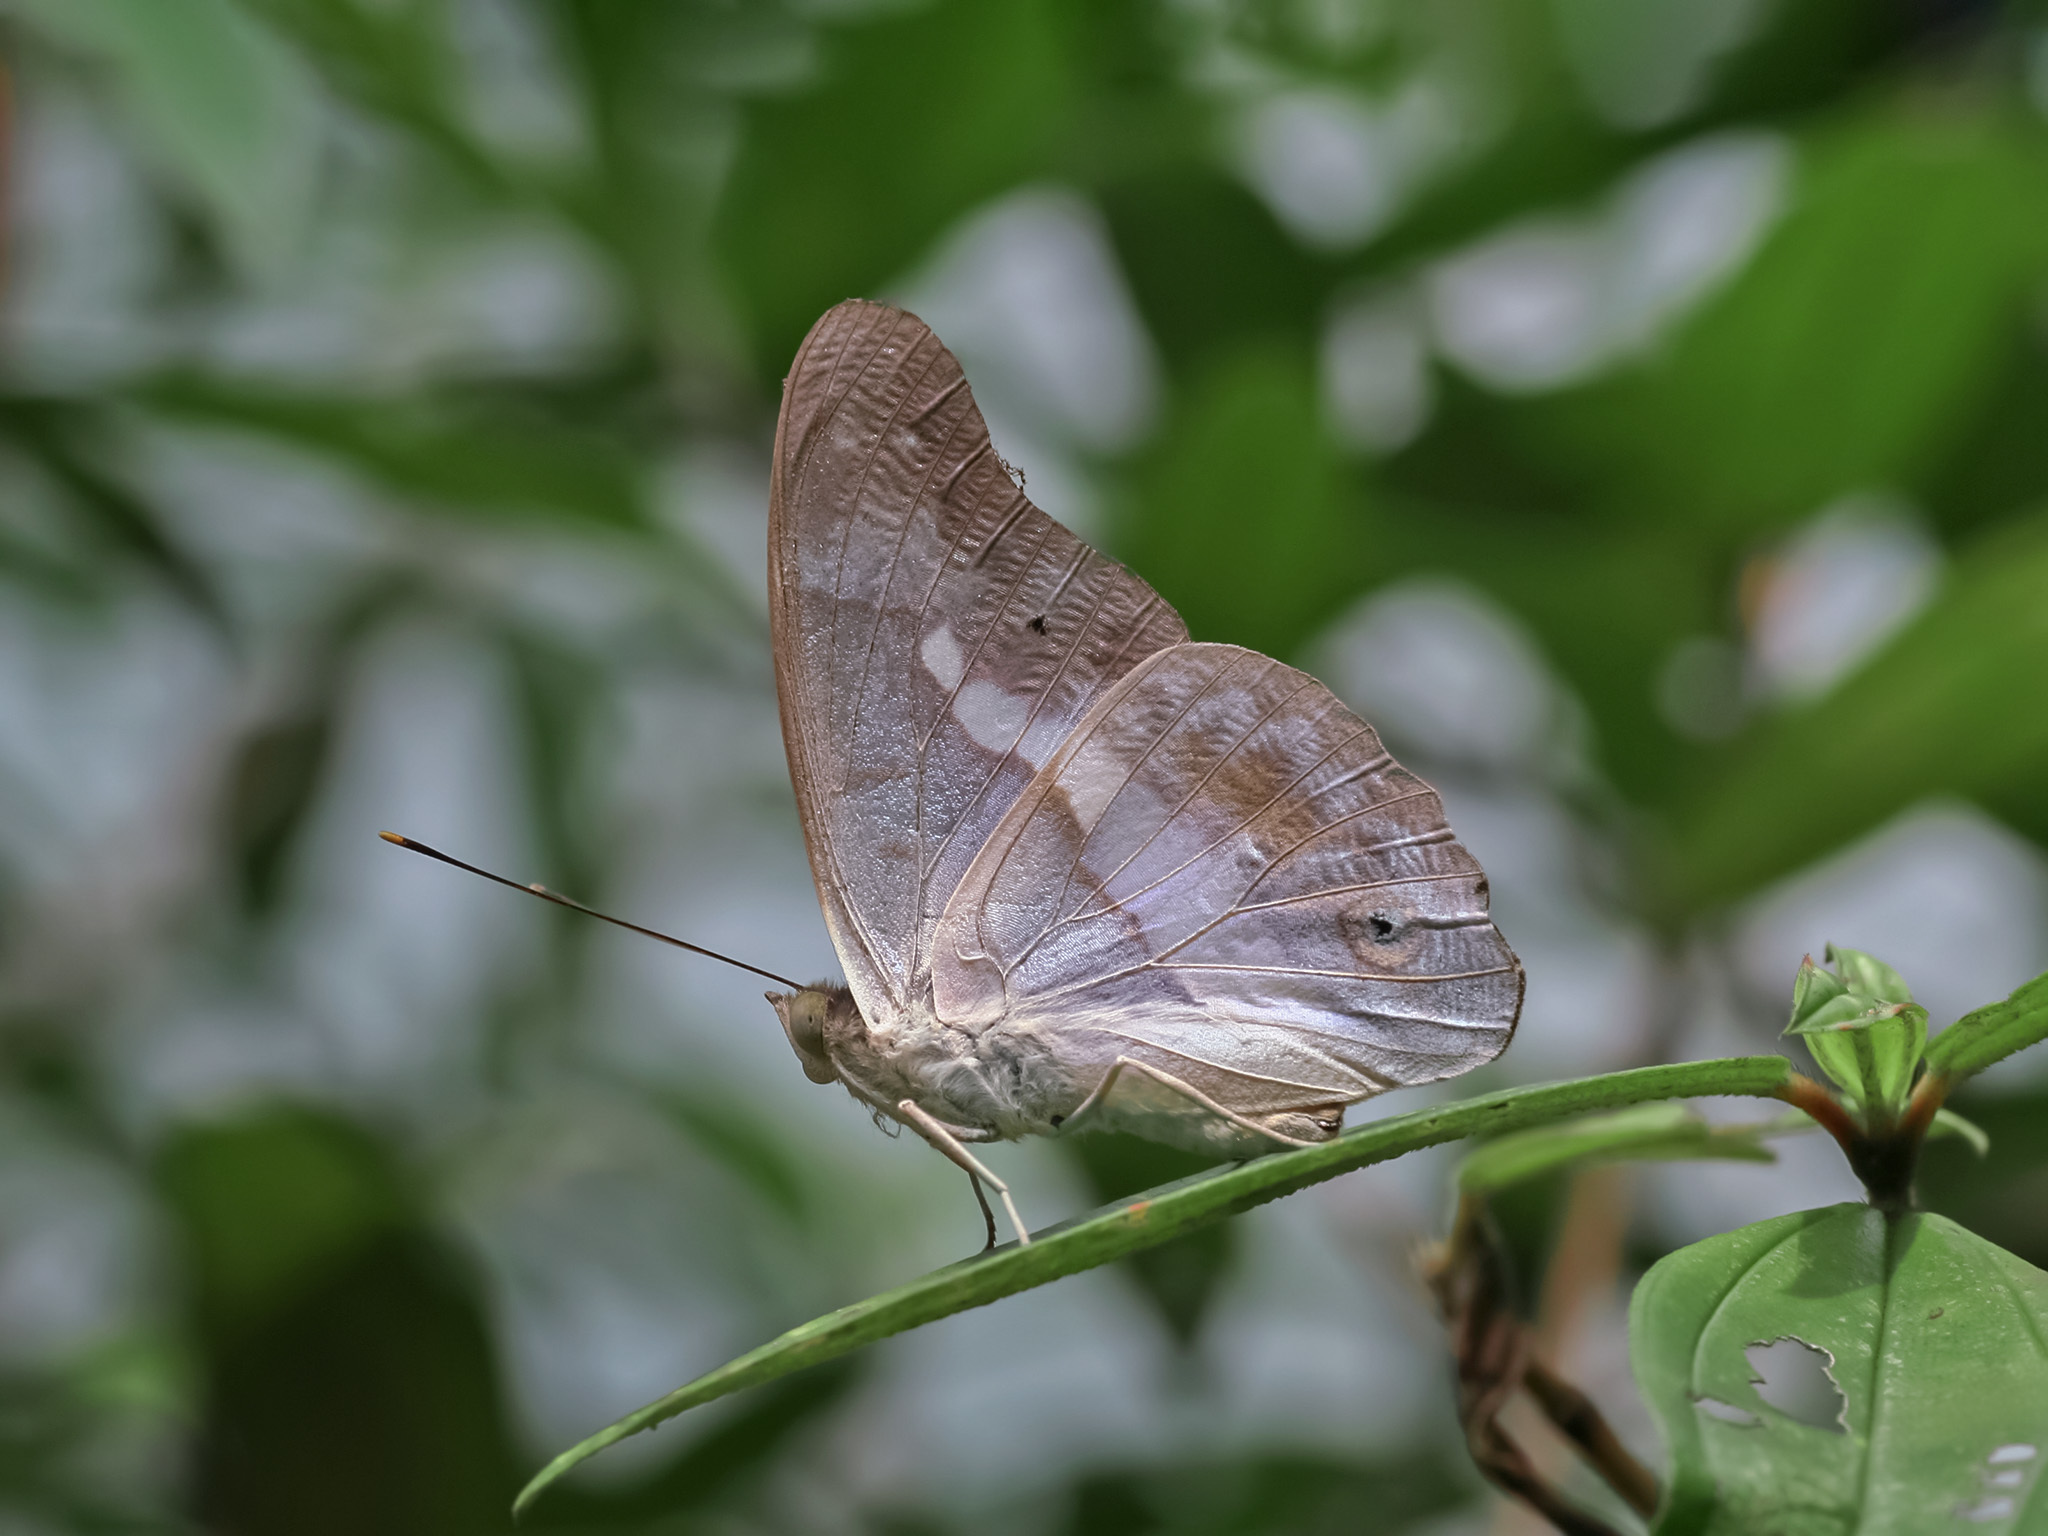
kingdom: Animalia
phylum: Arthropoda
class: Insecta
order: Lepidoptera
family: Nymphalidae
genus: Eulaceura
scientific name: Eulaceura osteria
